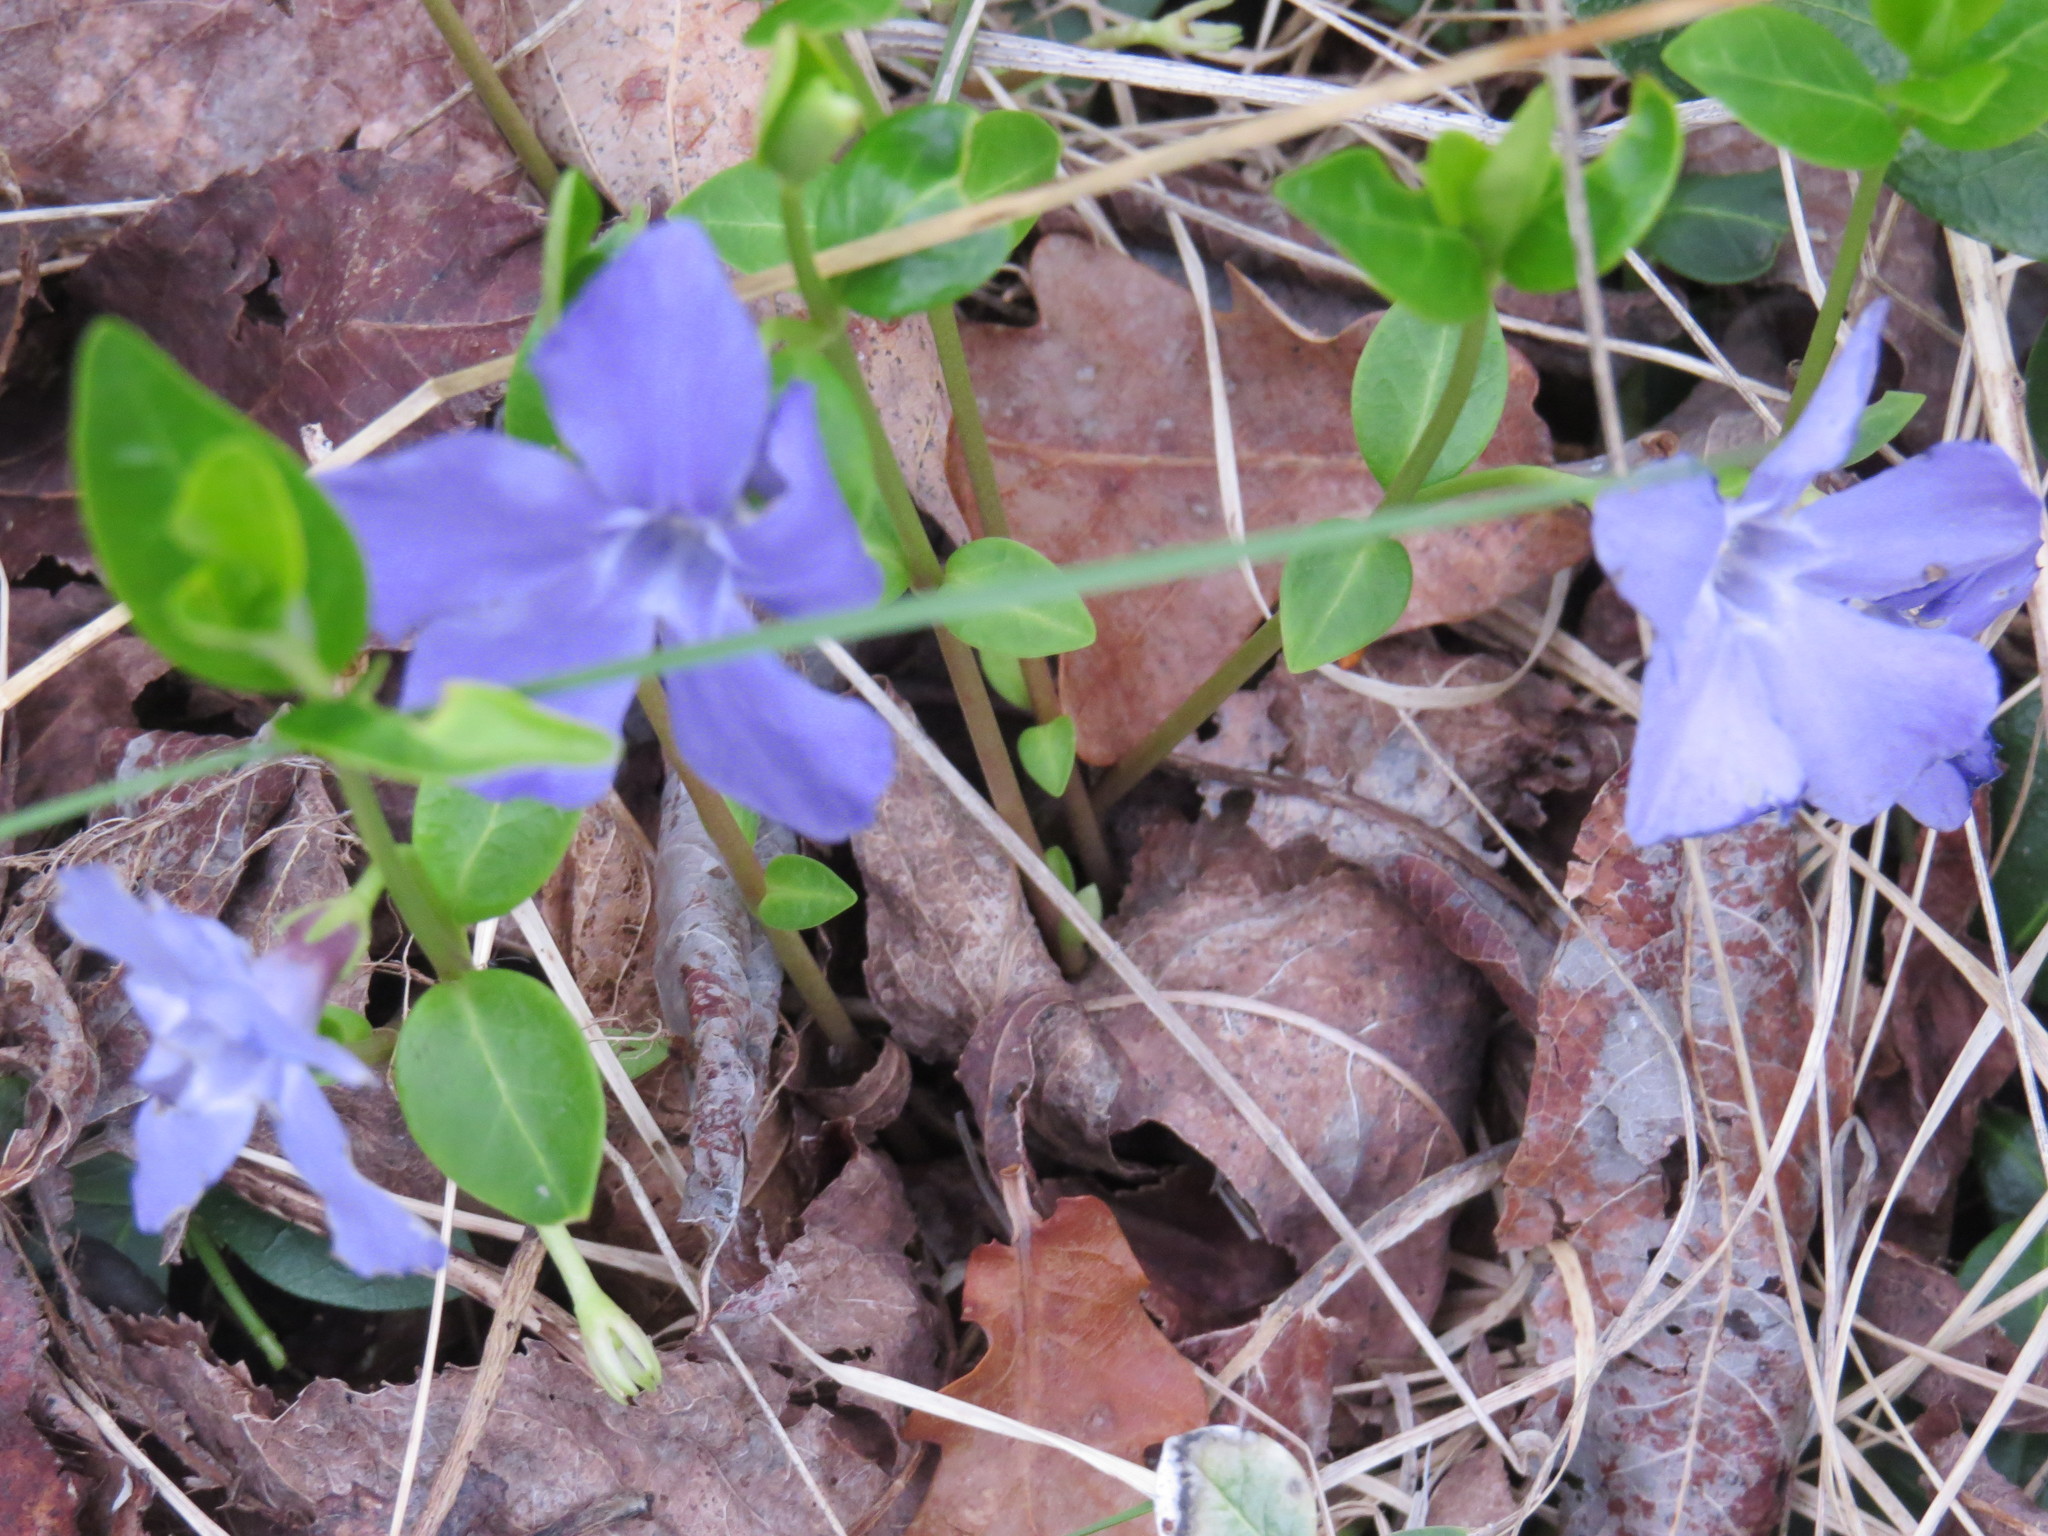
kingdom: Plantae
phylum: Tracheophyta
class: Magnoliopsida
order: Gentianales
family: Apocynaceae
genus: Vinca
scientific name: Vinca minor
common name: Lesser periwinkle
